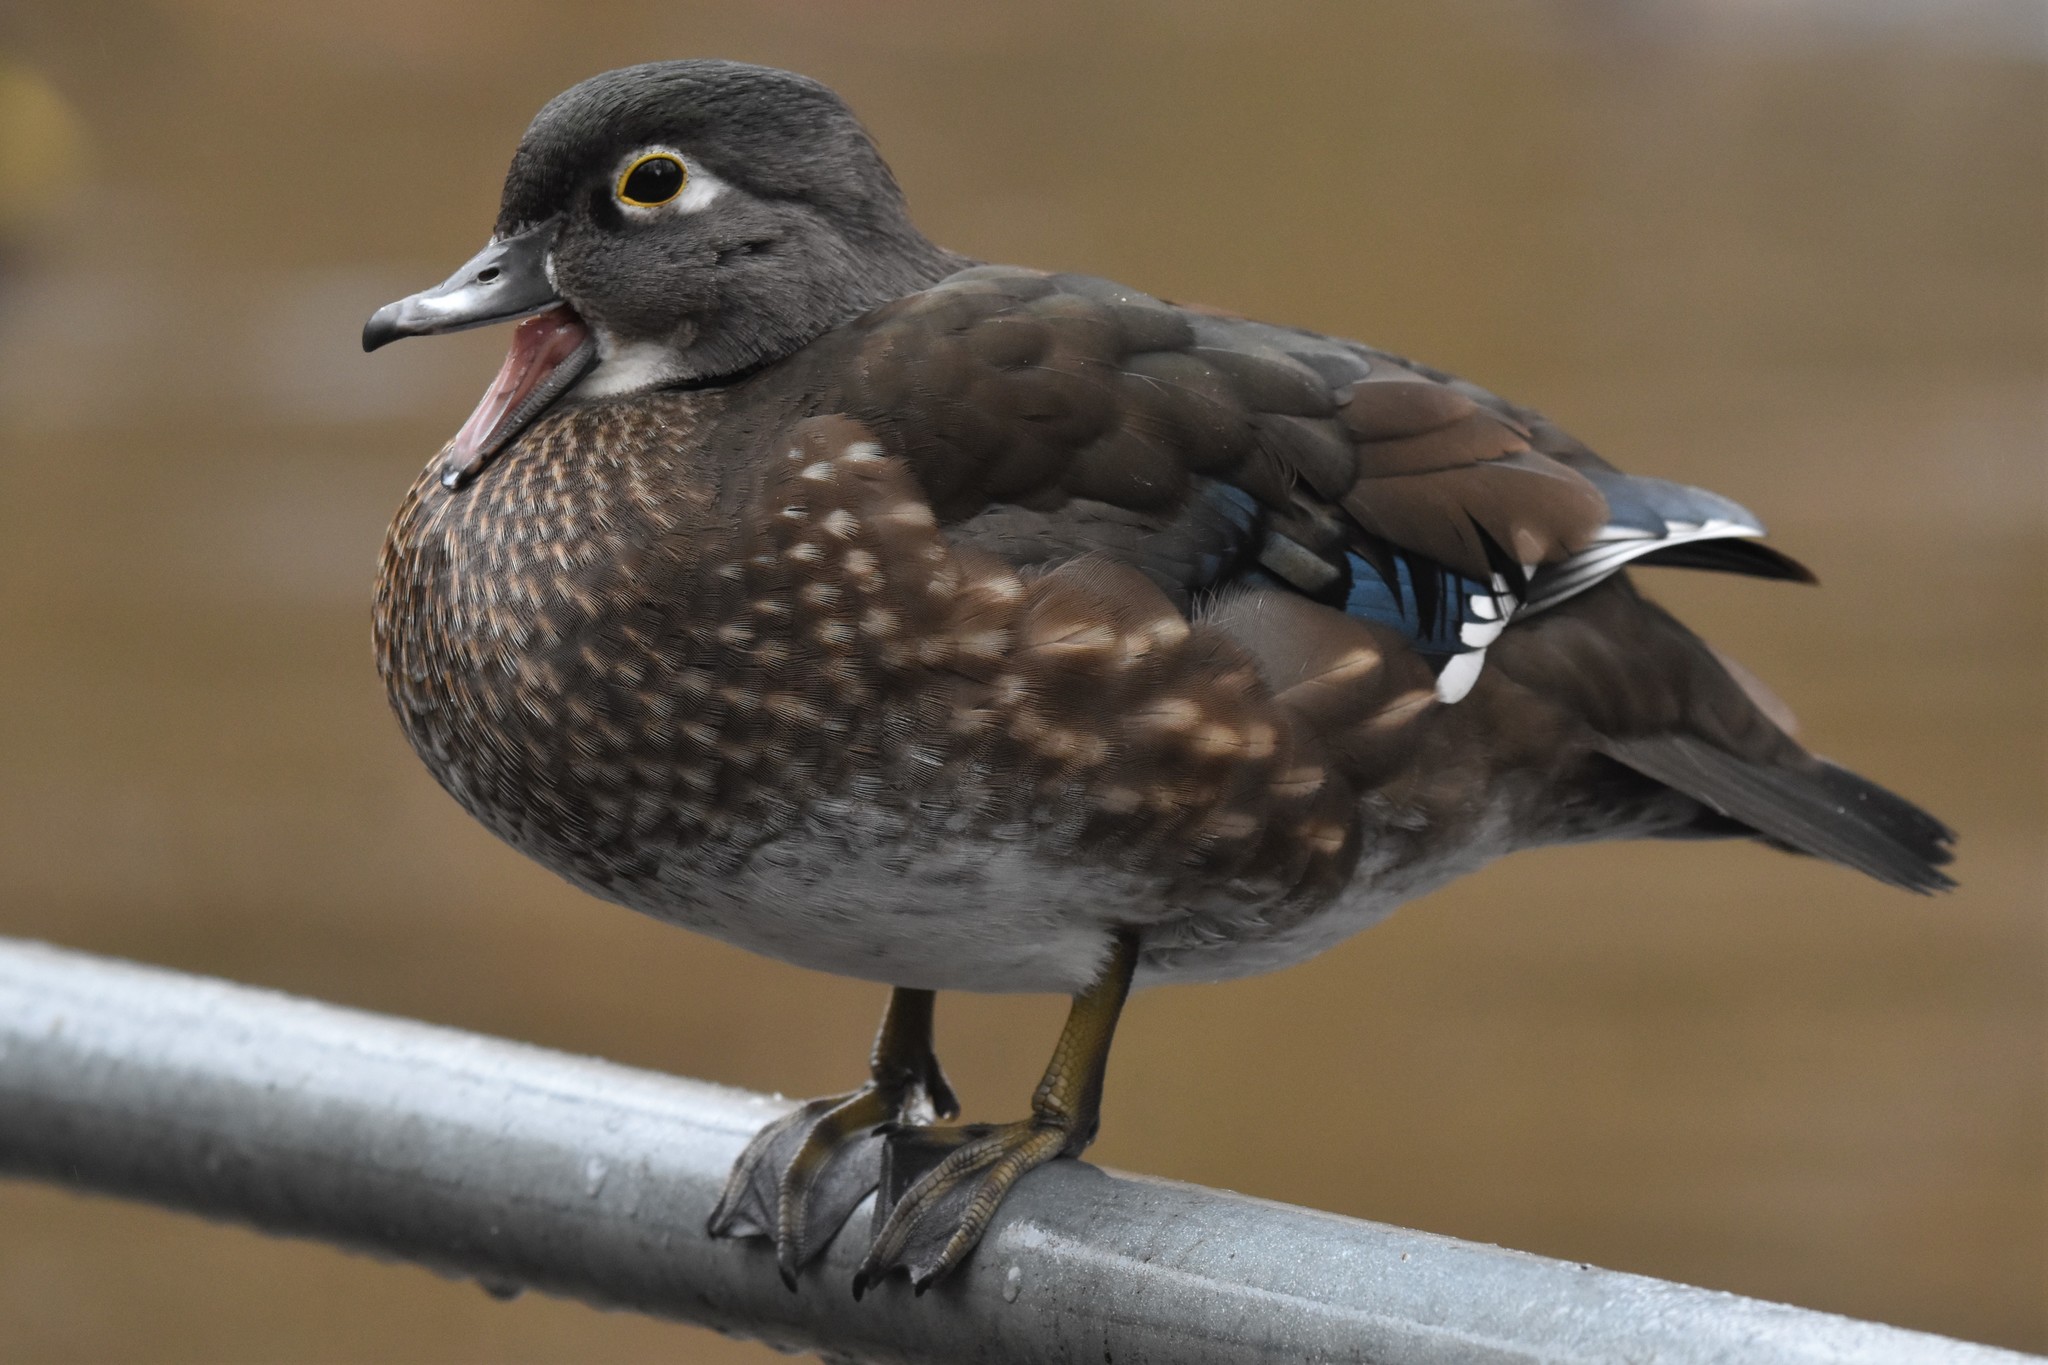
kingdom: Animalia
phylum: Chordata
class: Aves
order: Anseriformes
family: Anatidae
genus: Aix
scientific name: Aix sponsa
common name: Wood duck
